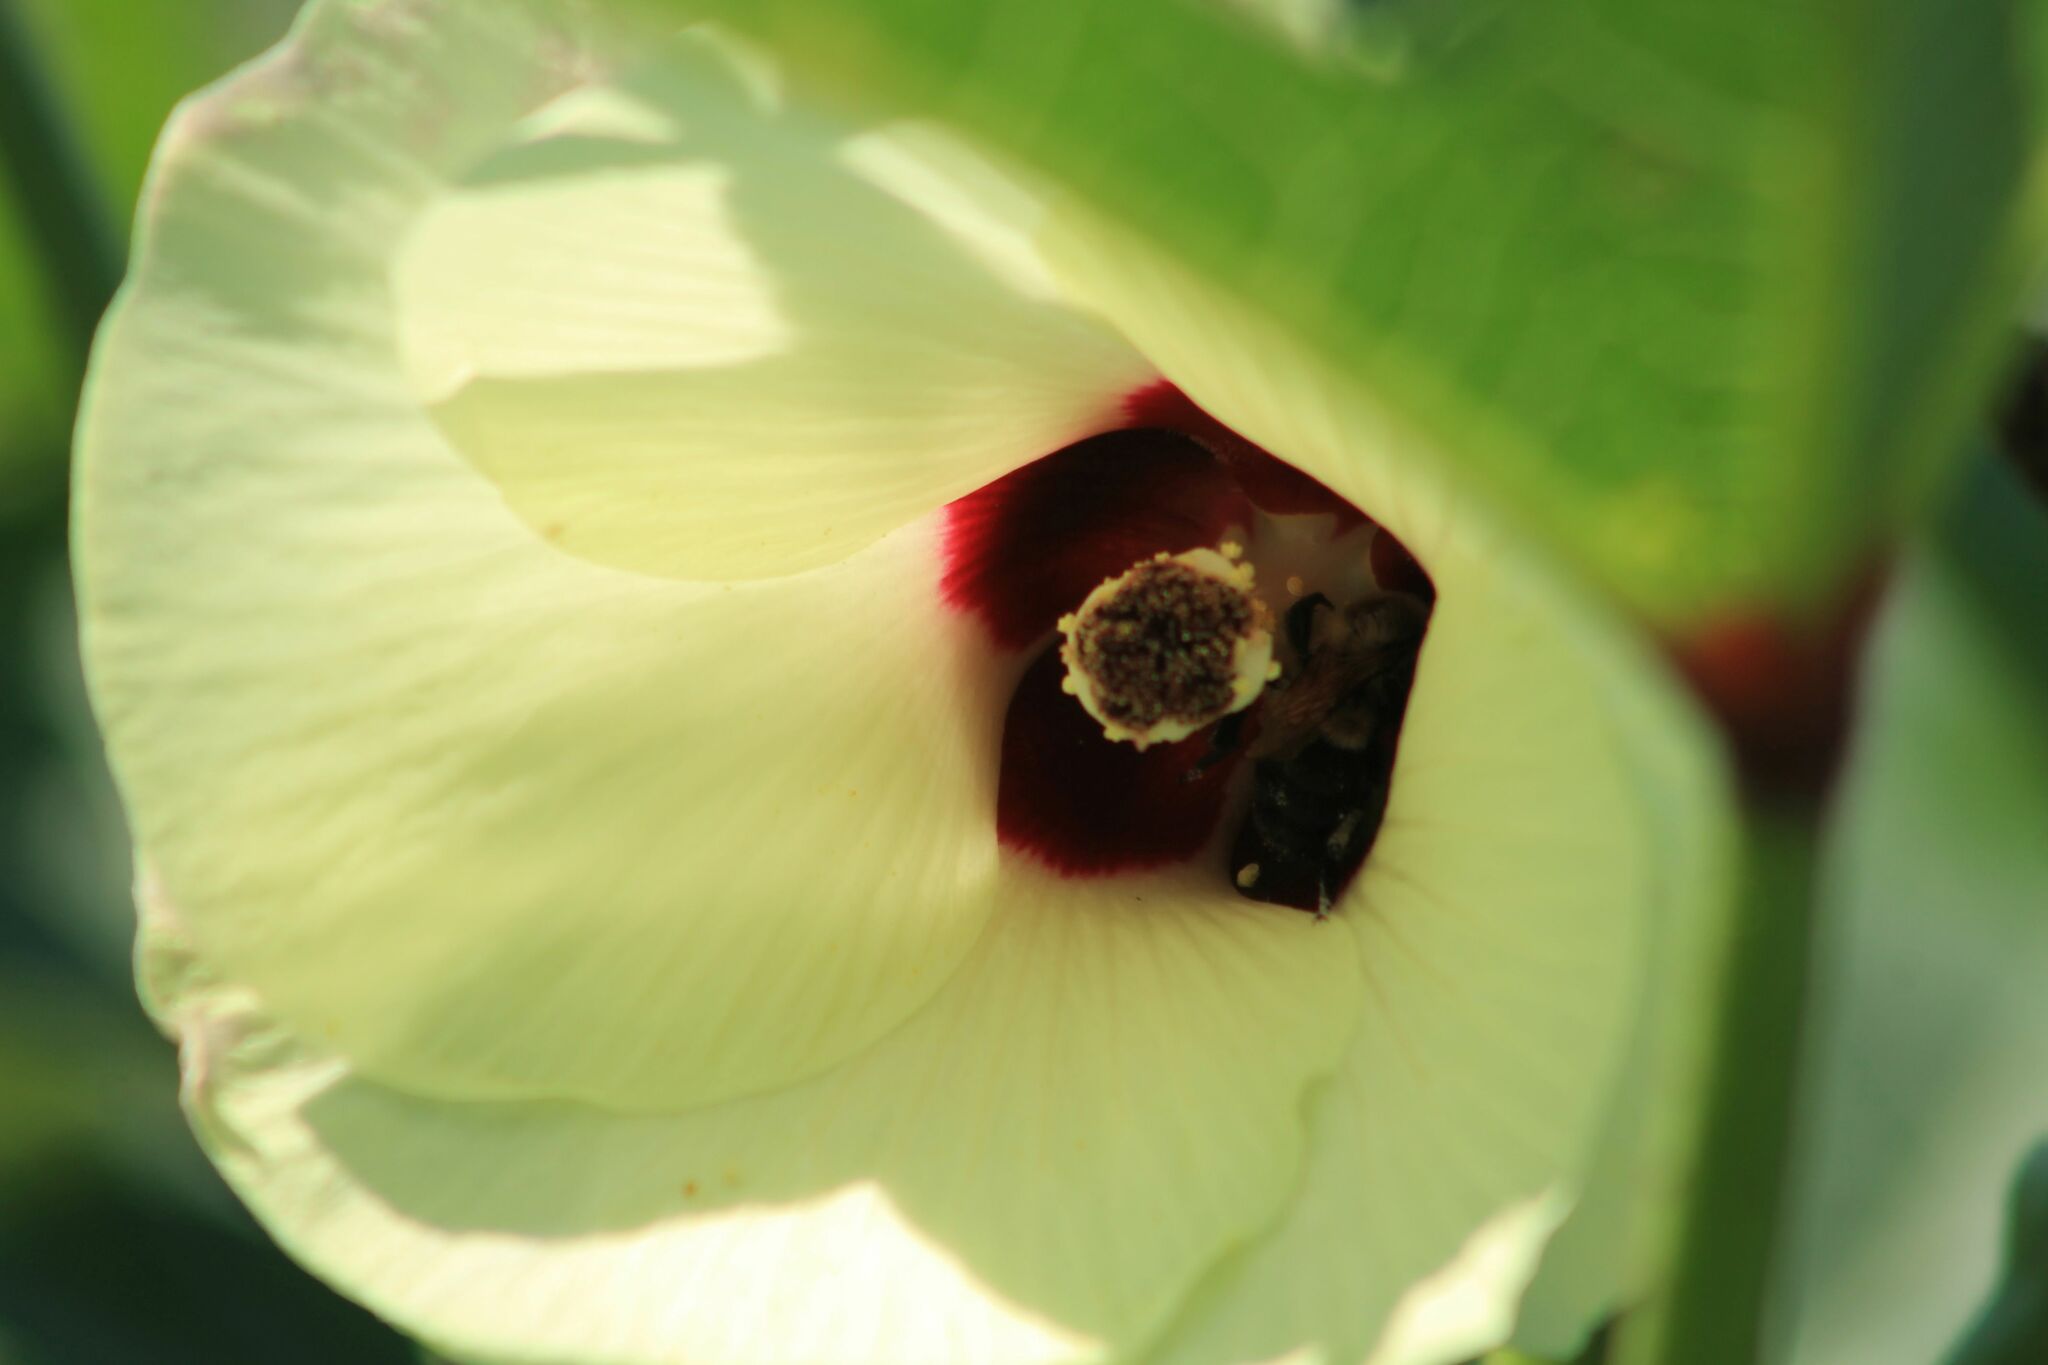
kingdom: Animalia
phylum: Arthropoda
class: Insecta
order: Hymenoptera
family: Apidae
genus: Bombus
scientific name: Bombus impatiens
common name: Common eastern bumble bee
